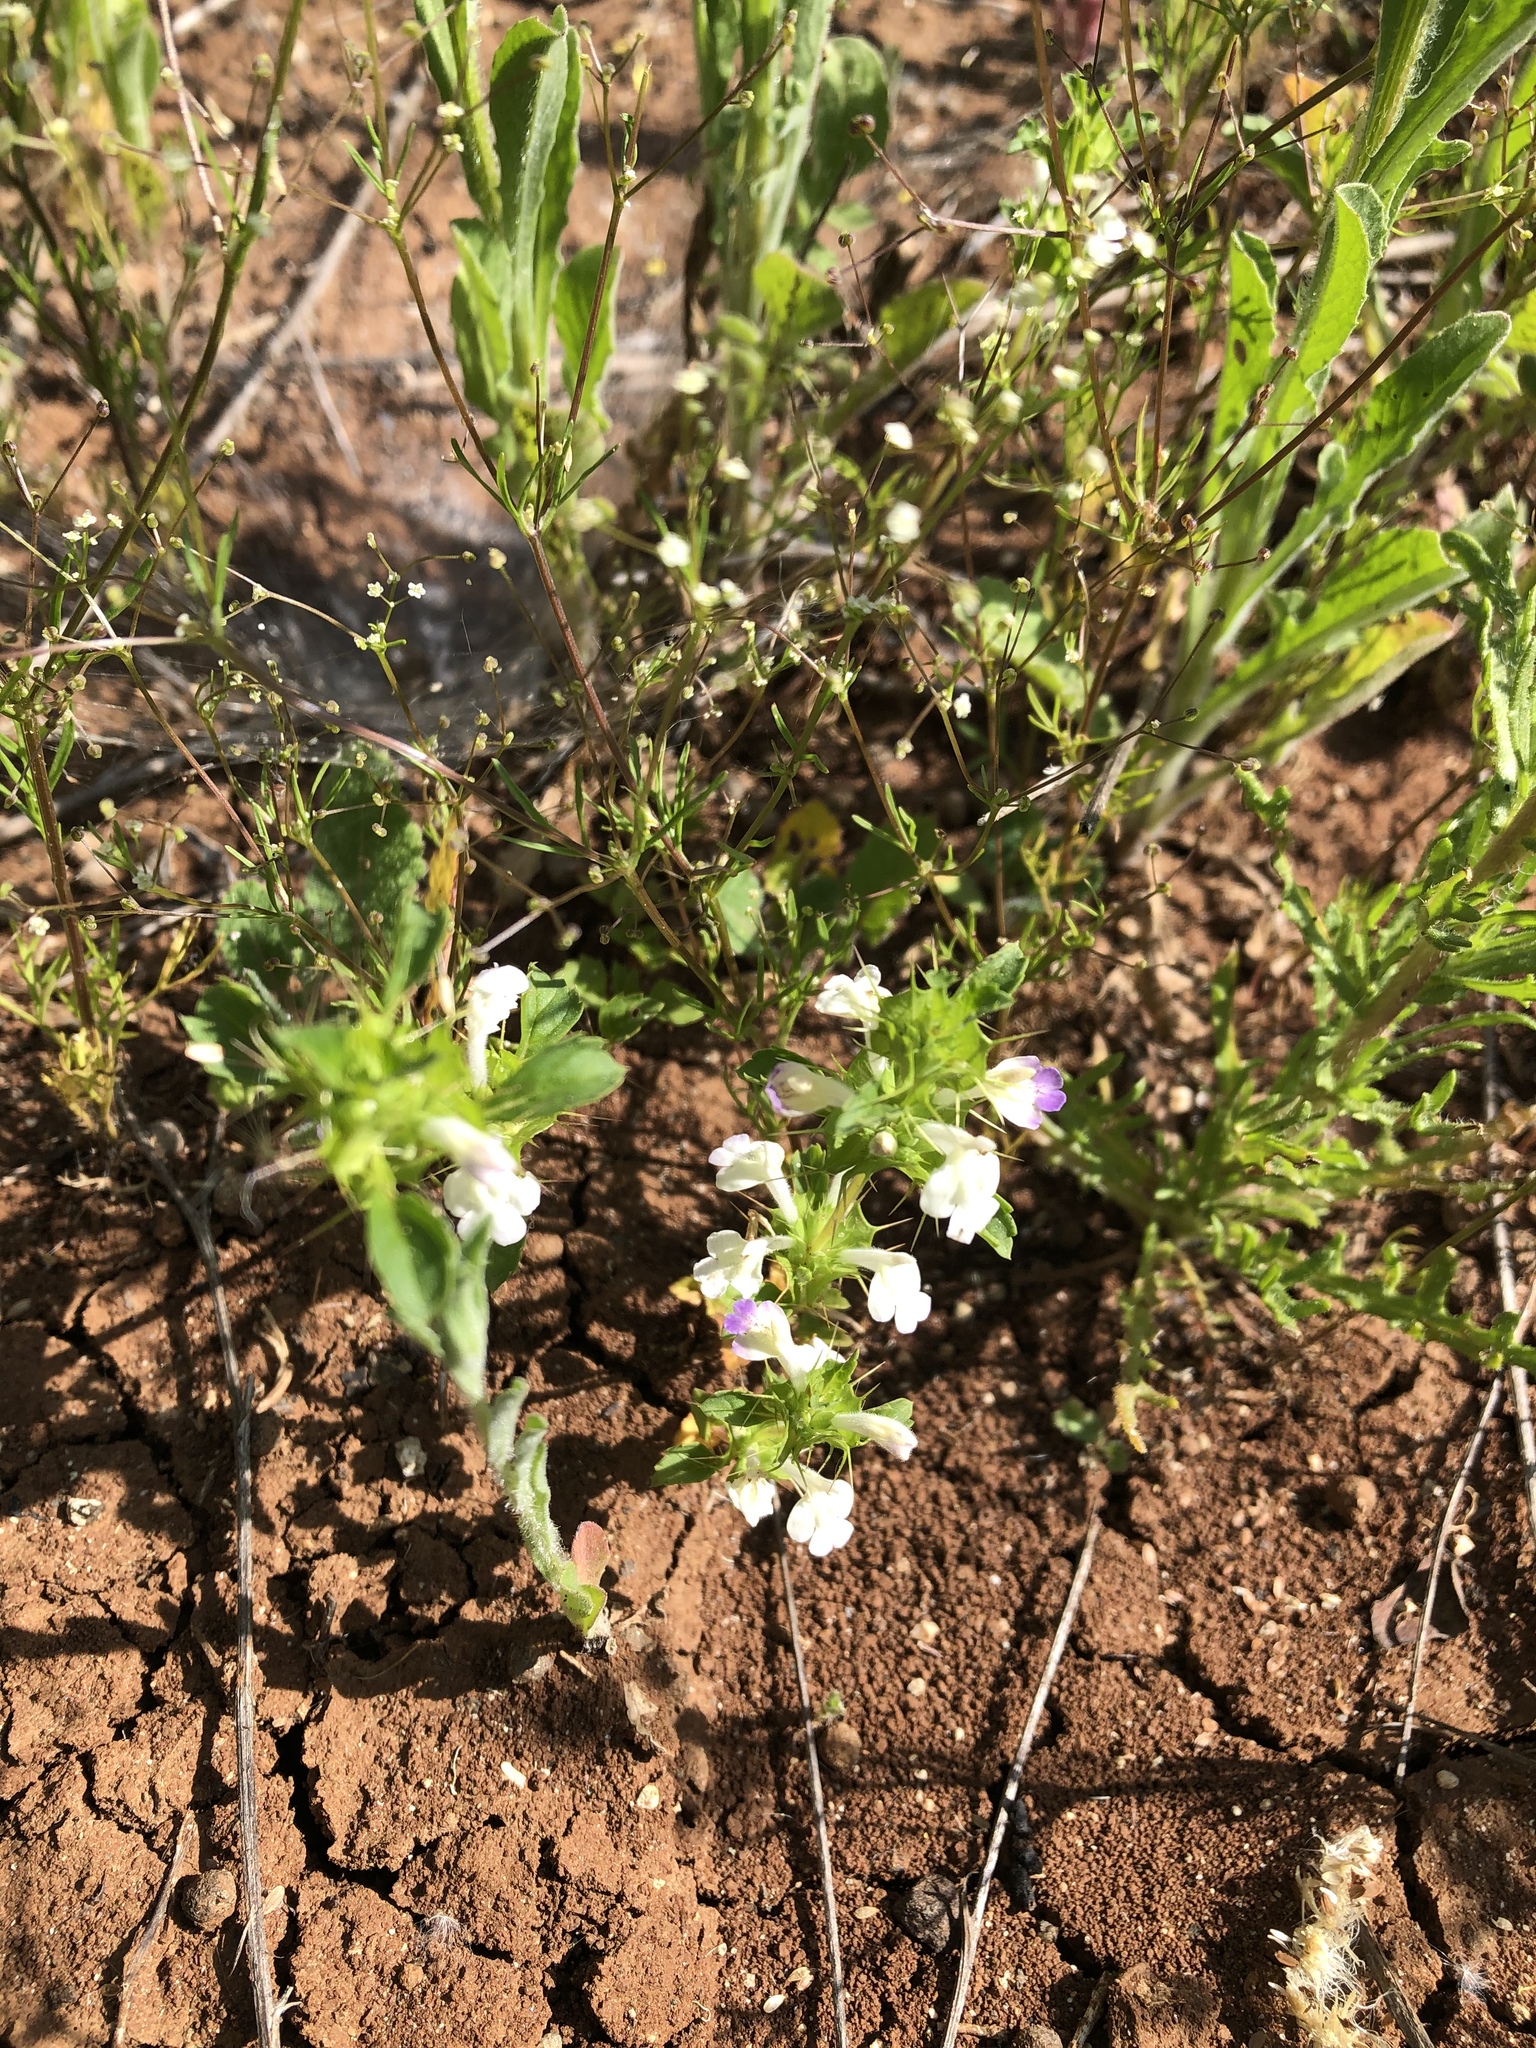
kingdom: Plantae
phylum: Tracheophyta
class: Magnoliopsida
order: Lamiales
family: Lamiaceae
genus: Acanthomintha
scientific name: Acanthomintha ilicifolia
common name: San diego thorn-mint
